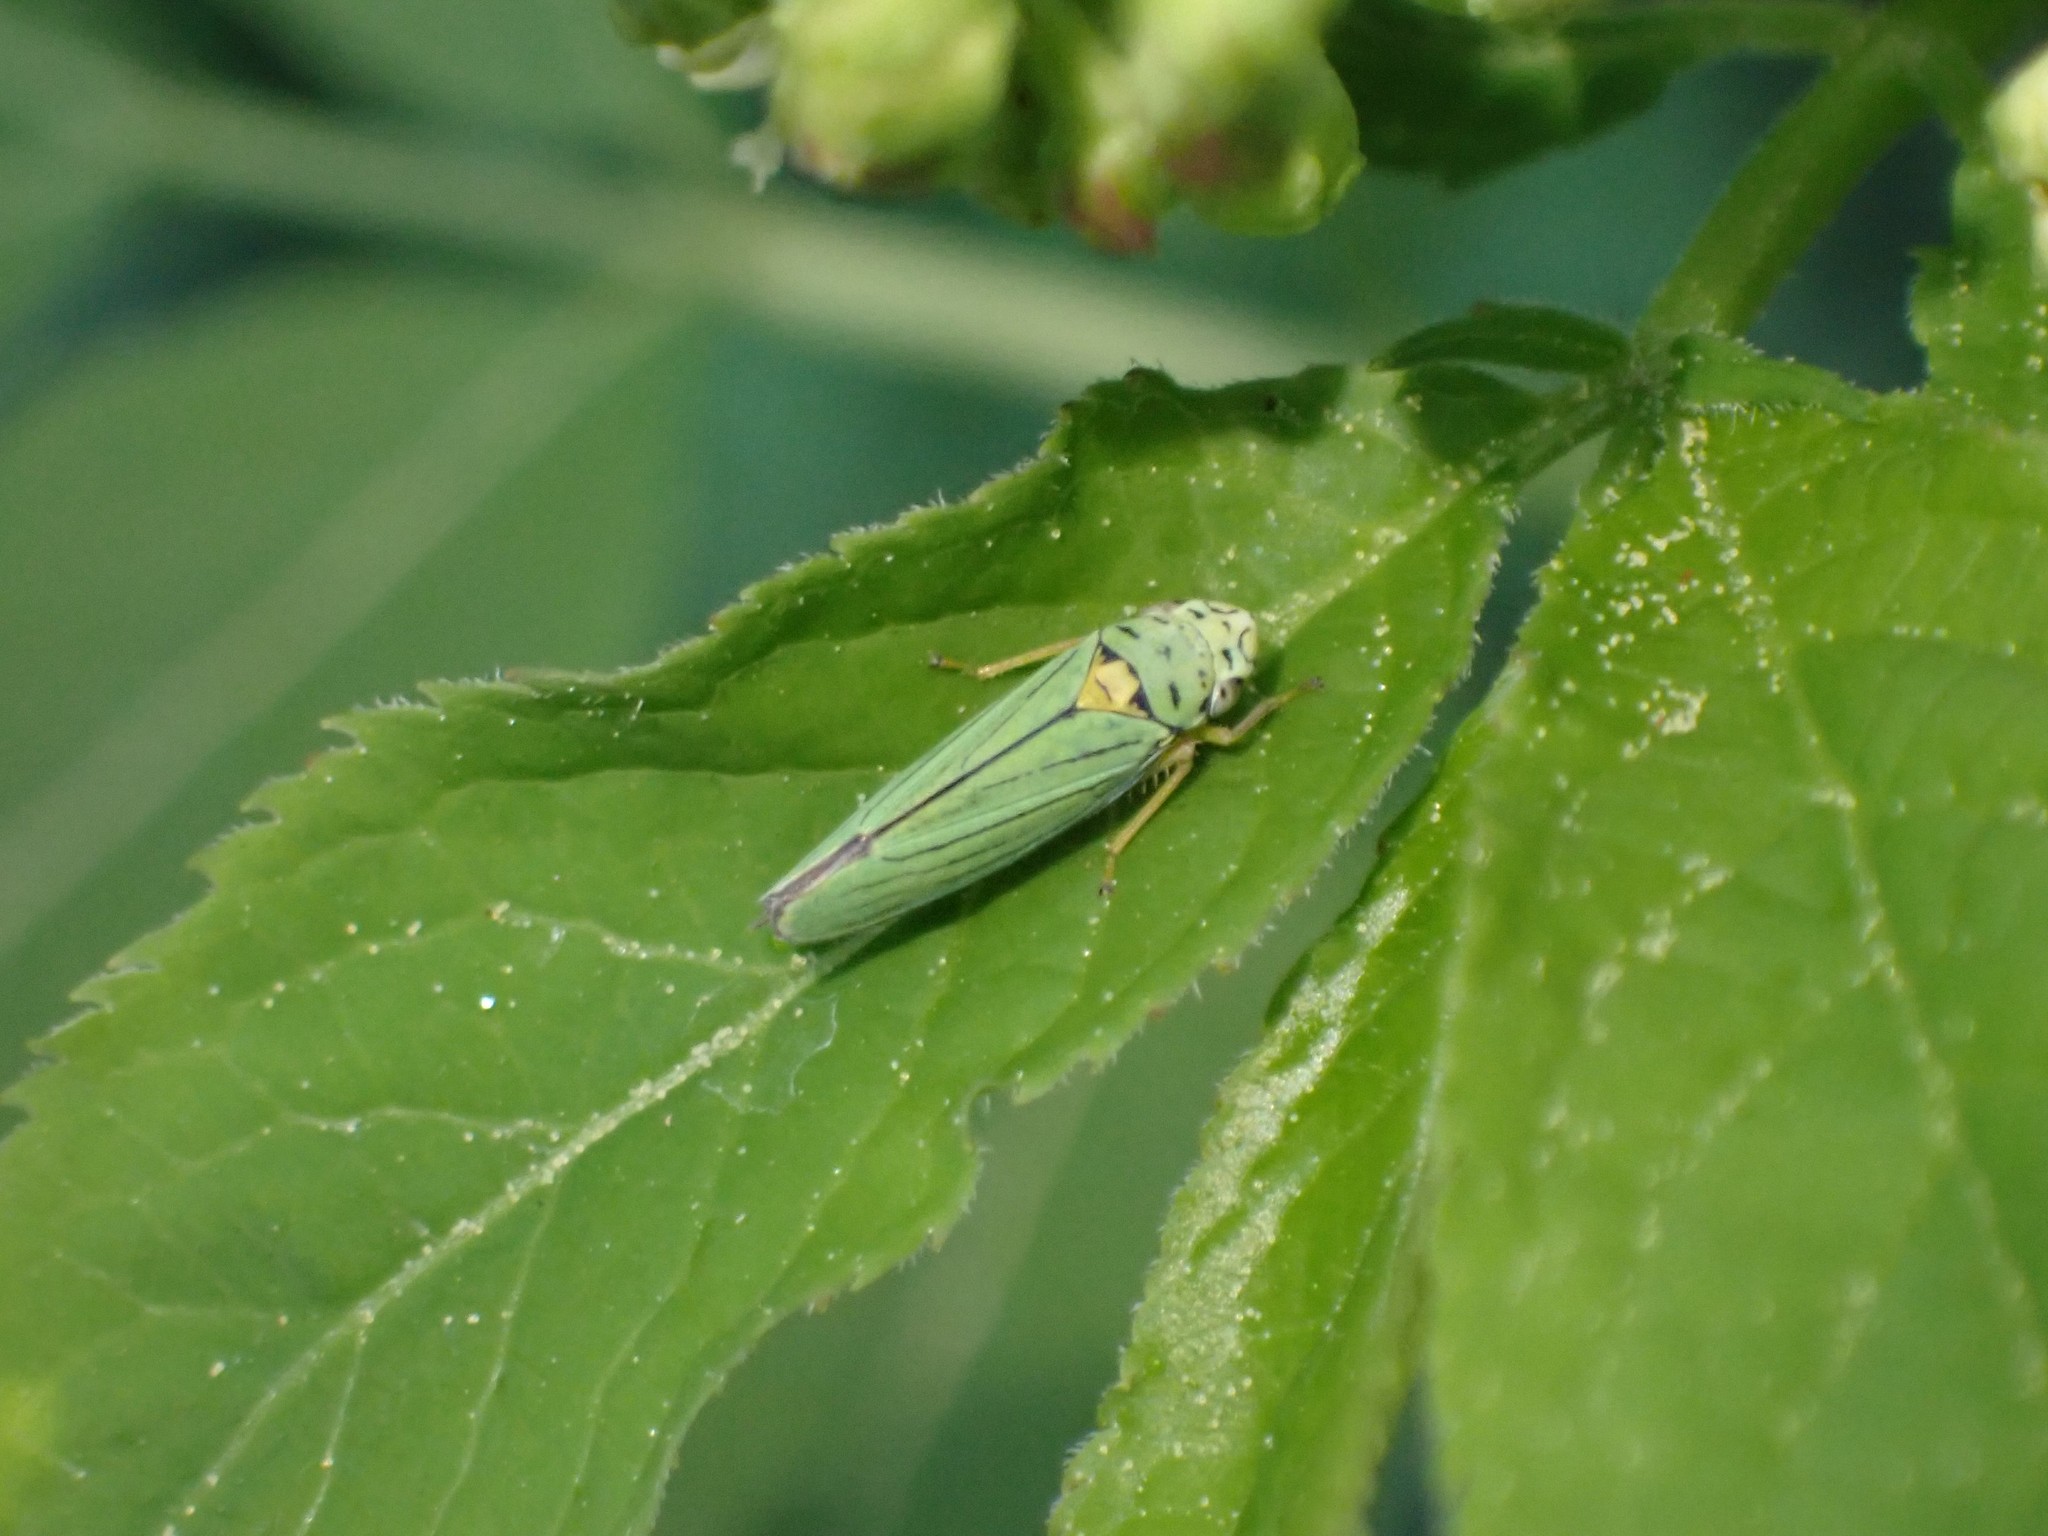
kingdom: Animalia
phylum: Arthropoda
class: Insecta
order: Hemiptera
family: Cicadellidae
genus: Graphocephala
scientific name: Graphocephala atropunctata
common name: Blue-green sharpshooter
